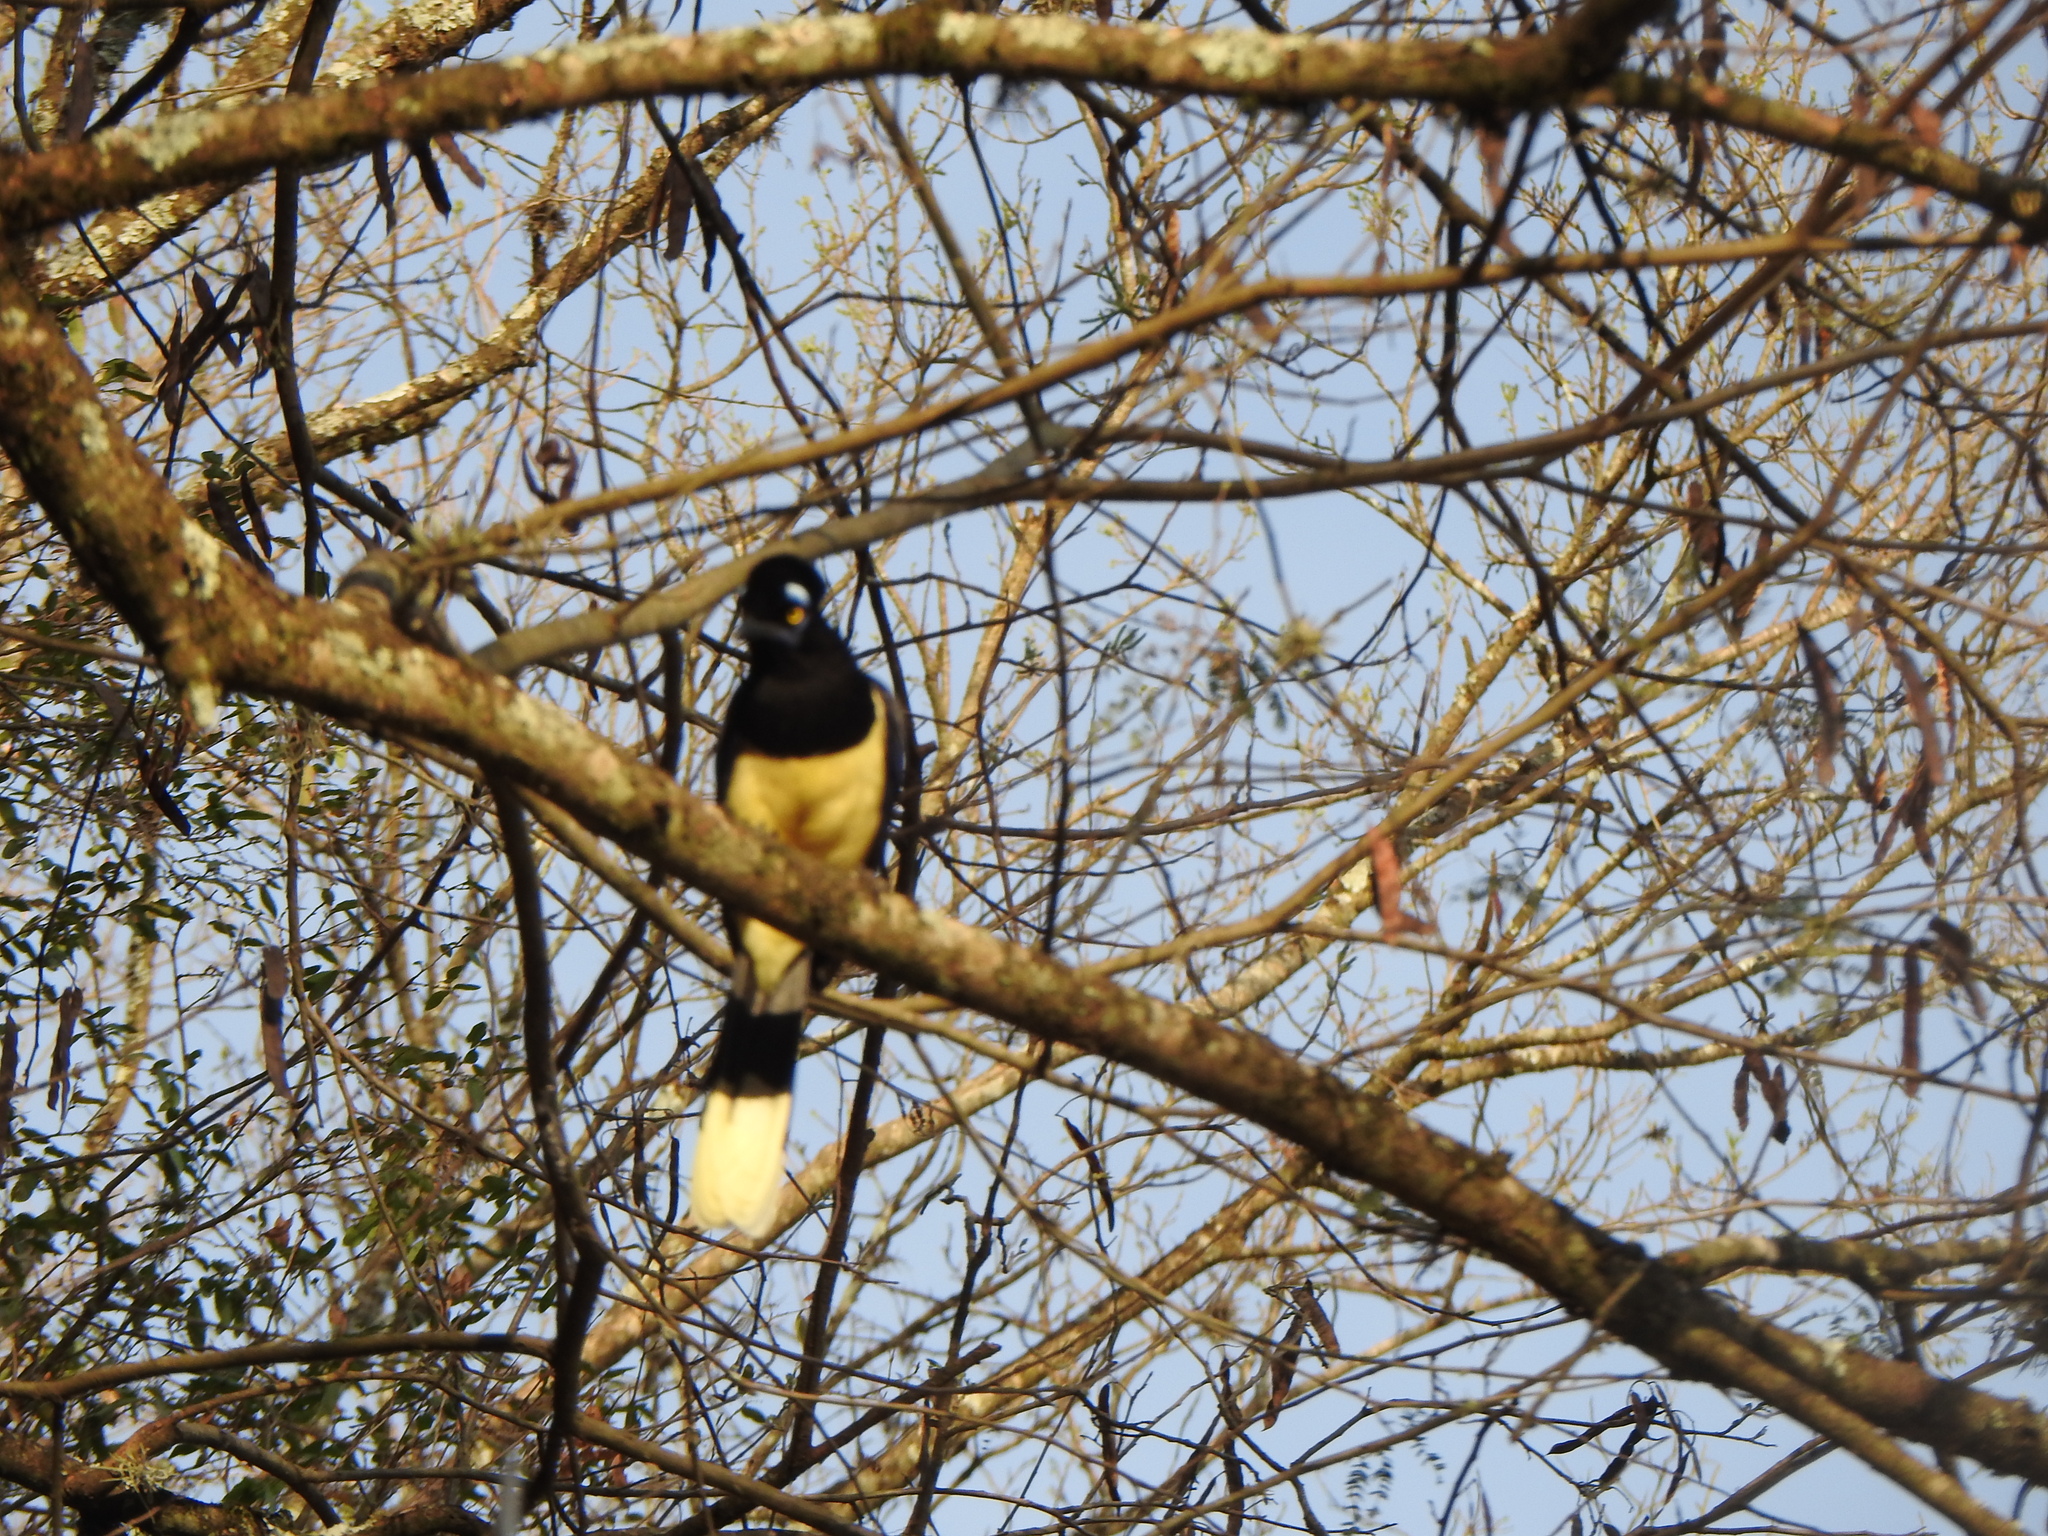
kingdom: Animalia
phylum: Chordata
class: Aves
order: Passeriformes
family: Corvidae
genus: Cyanocorax
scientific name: Cyanocorax chrysops
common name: Plush-crested jay
